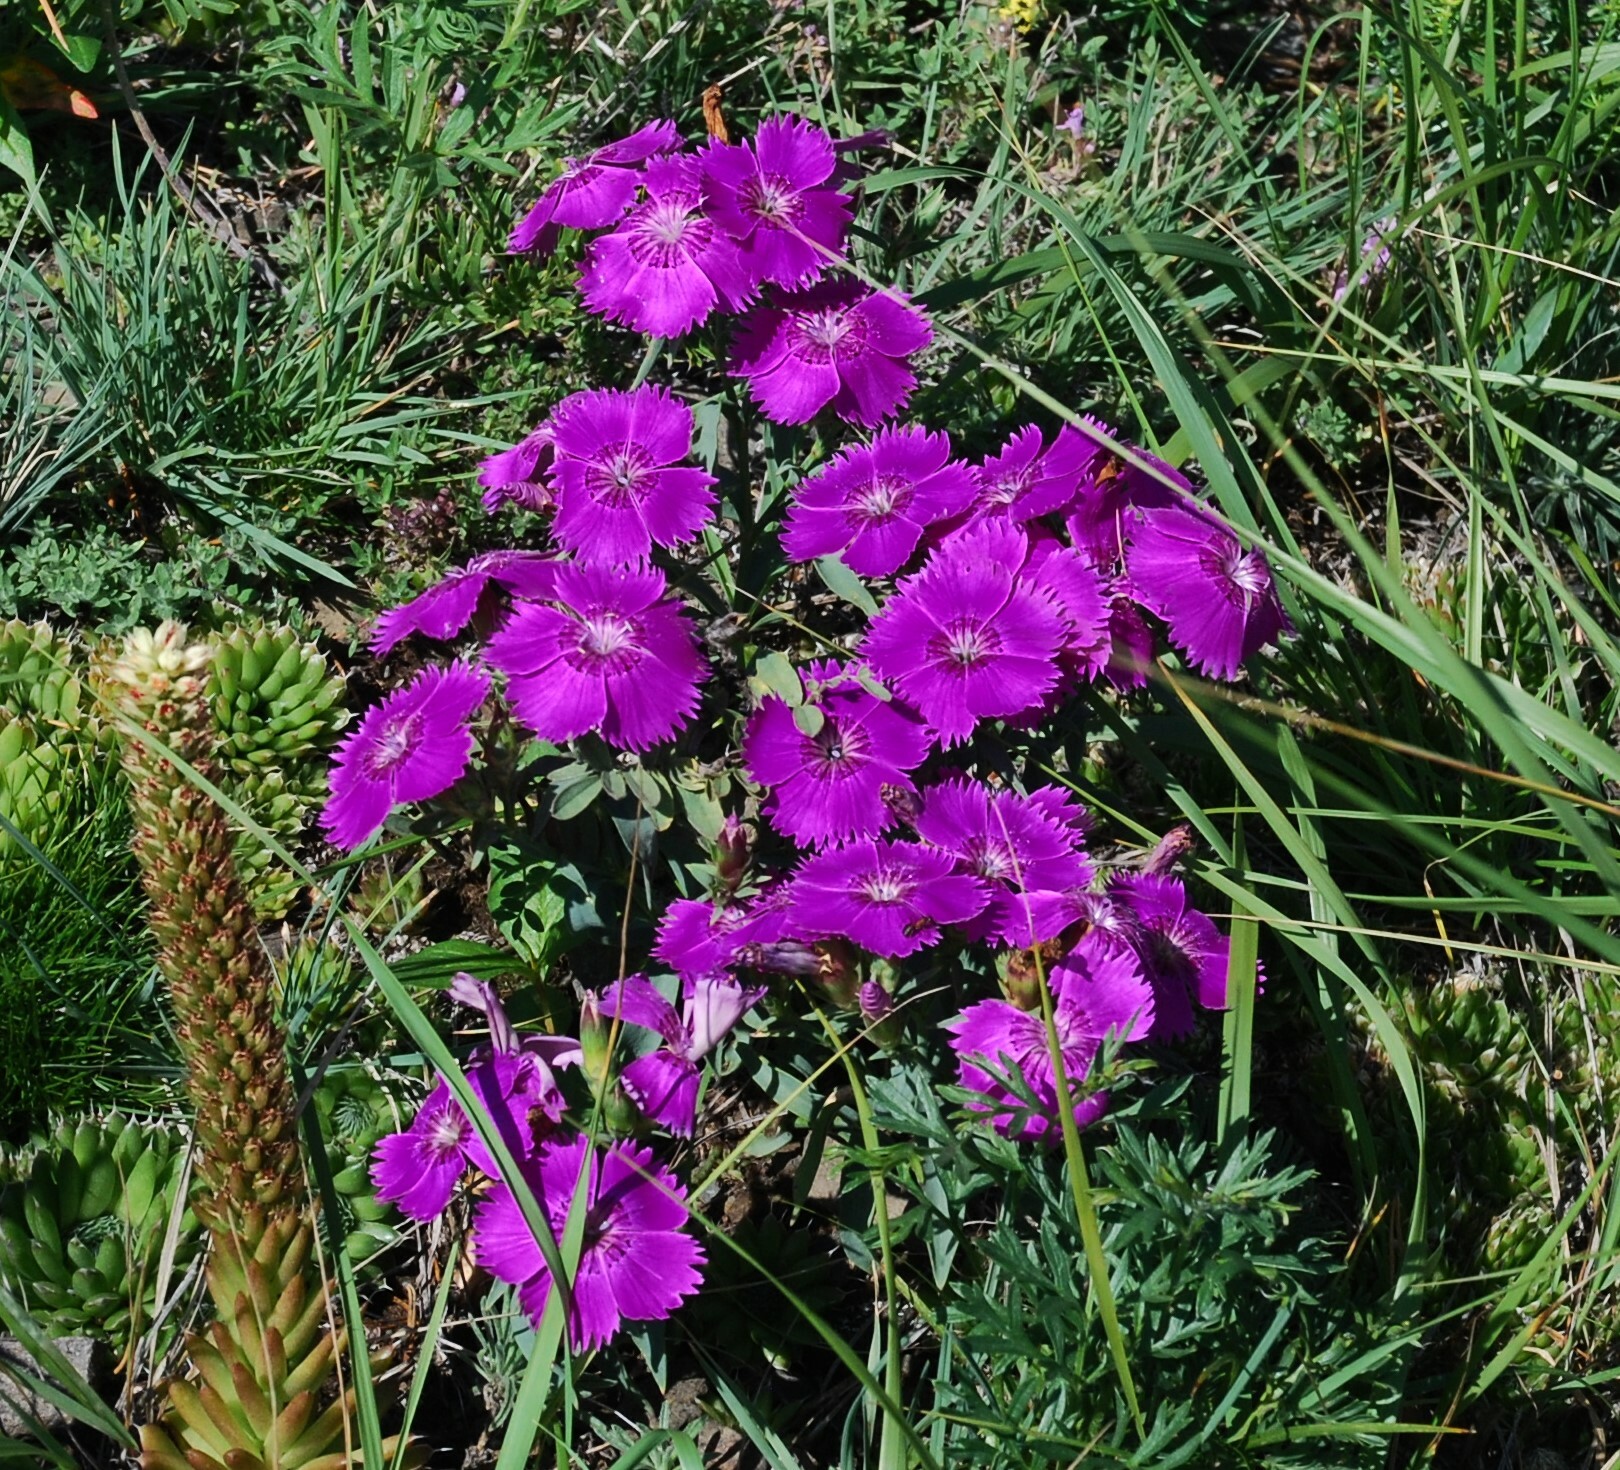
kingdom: Plantae
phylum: Tracheophyta
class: Magnoliopsida
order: Caryophyllales
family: Caryophyllaceae
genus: Dianthus
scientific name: Dianthus chinensis
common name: Rainbow pink
